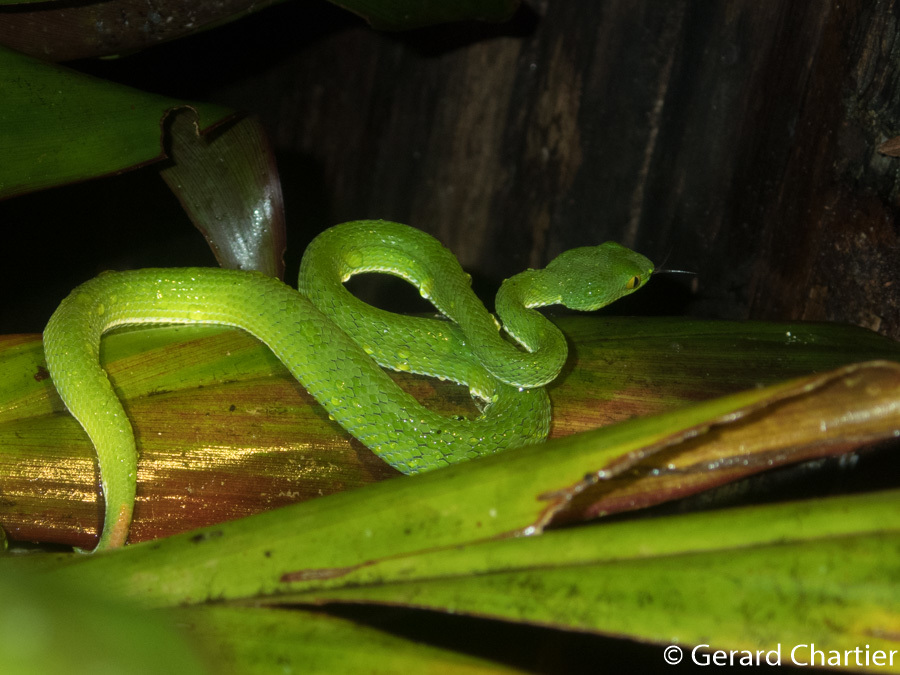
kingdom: Animalia
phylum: Chordata
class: Squamata
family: Viperidae
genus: Trimeresurus
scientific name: Trimeresurus cardamomensis
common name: Cardamom mountains green pitviper
